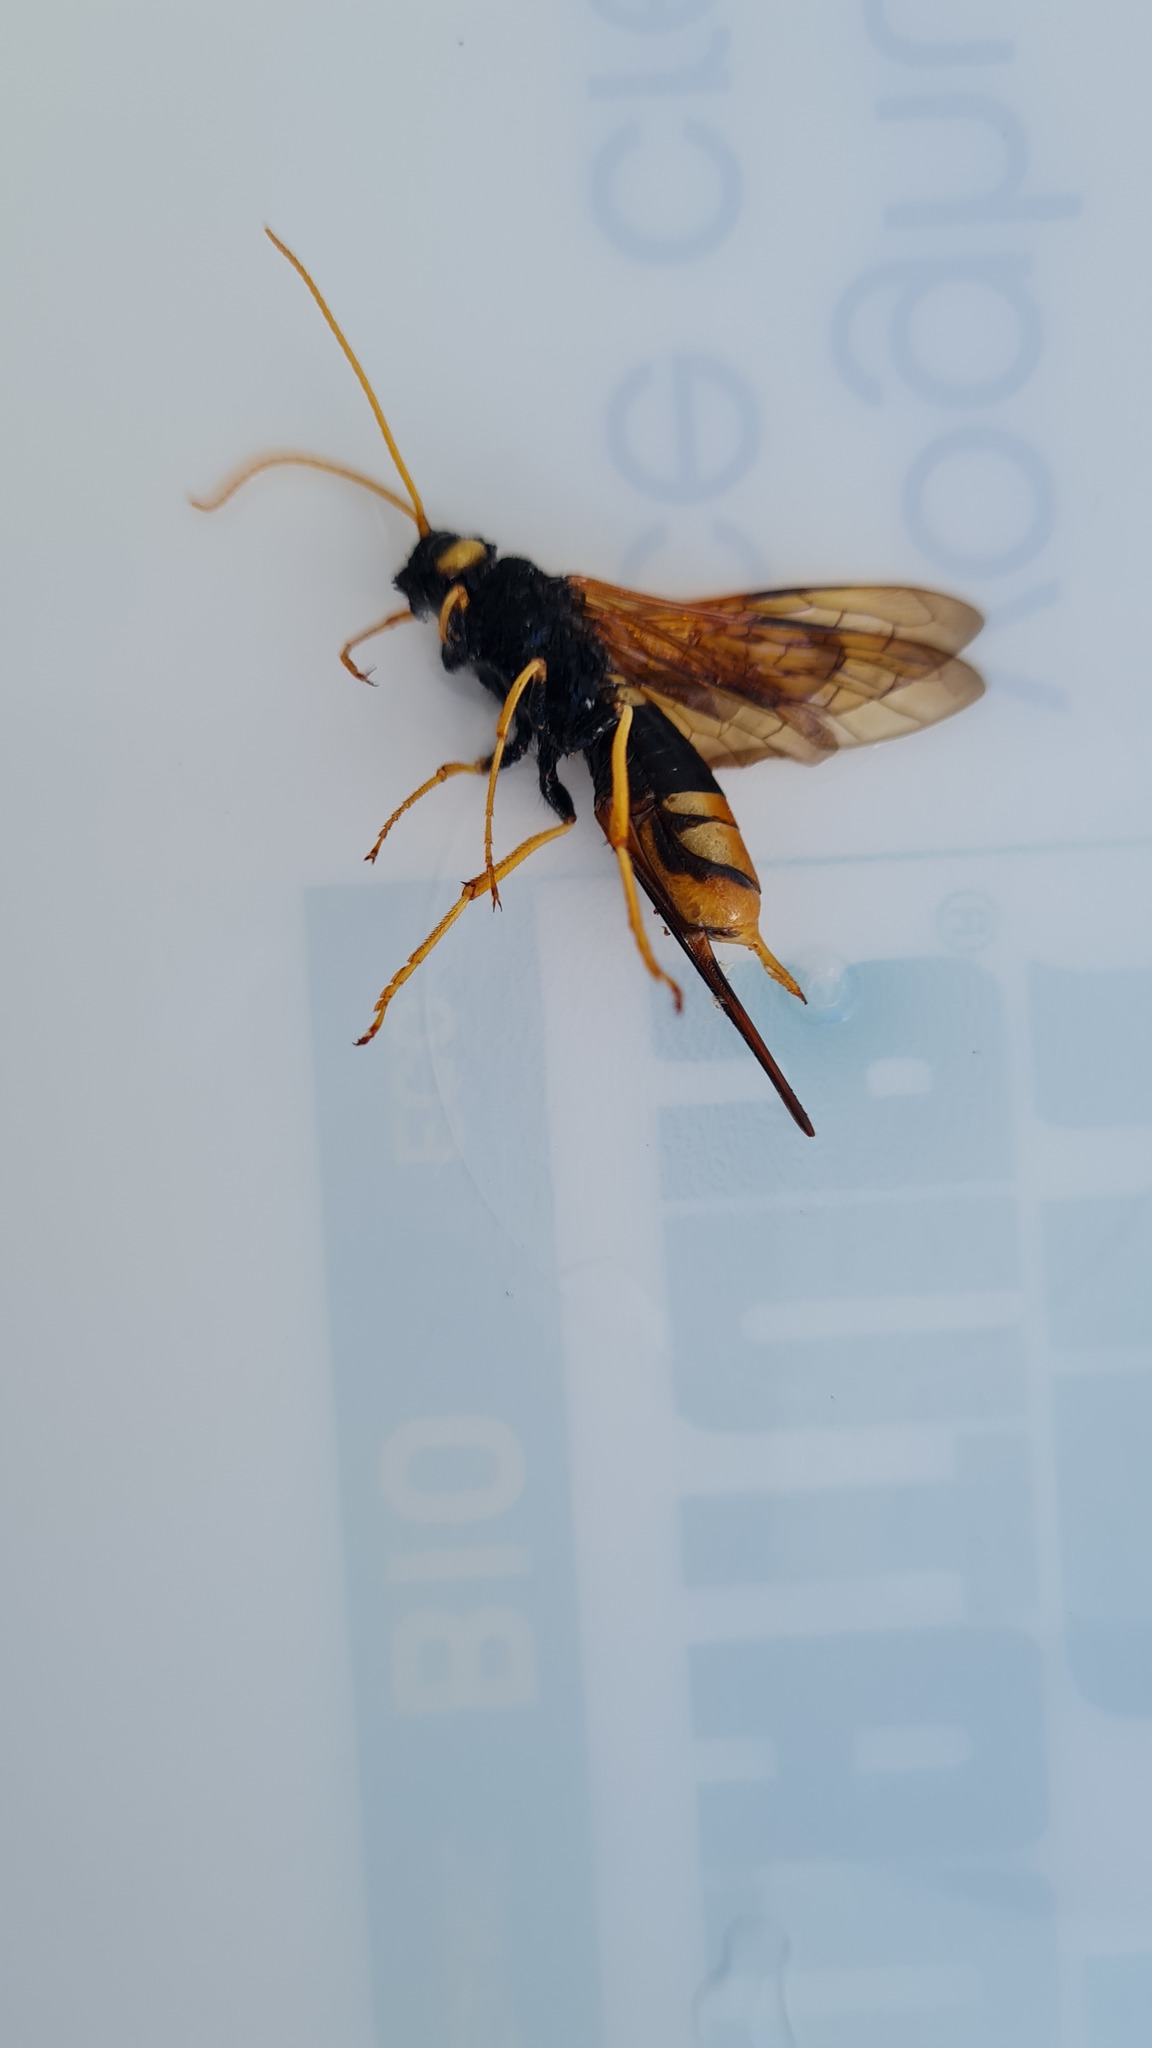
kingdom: Animalia
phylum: Arthropoda
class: Insecta
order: Hymenoptera
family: Siricidae
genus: Urocerus
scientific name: Urocerus gigas
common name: Giant woodwasp
